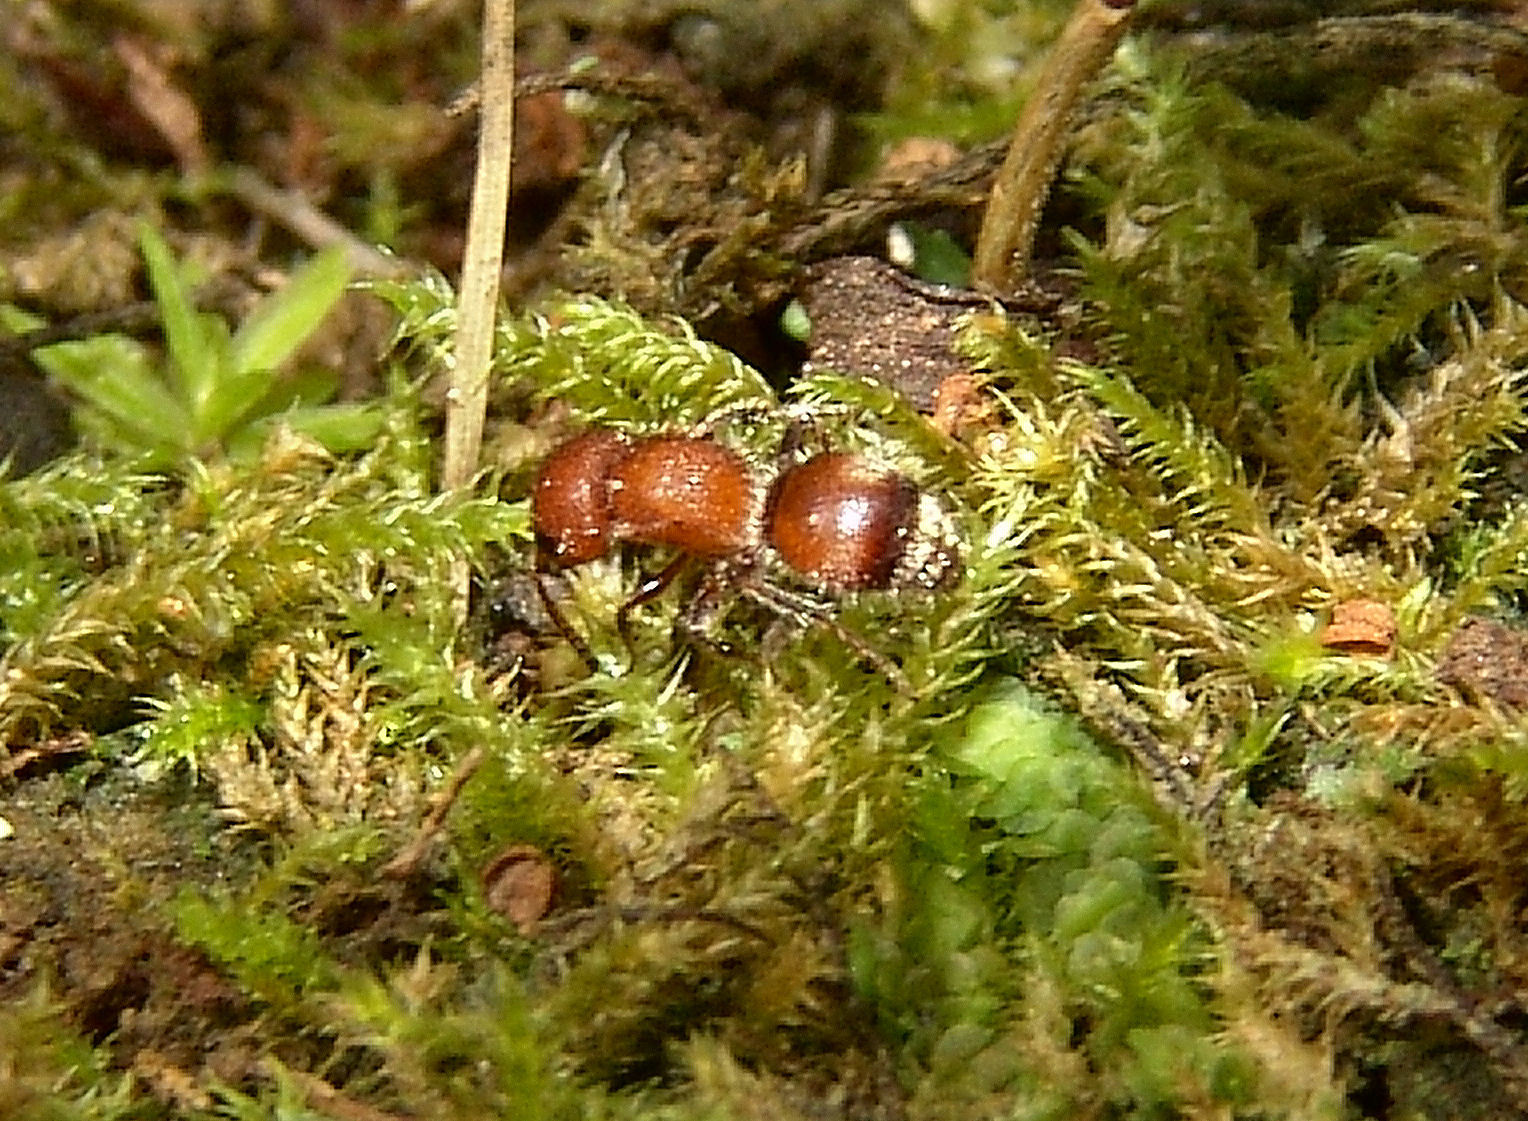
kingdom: Animalia
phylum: Arthropoda
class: Insecta
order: Hymenoptera
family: Mutillidae
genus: Pseudomethoca
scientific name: Pseudomethoca
